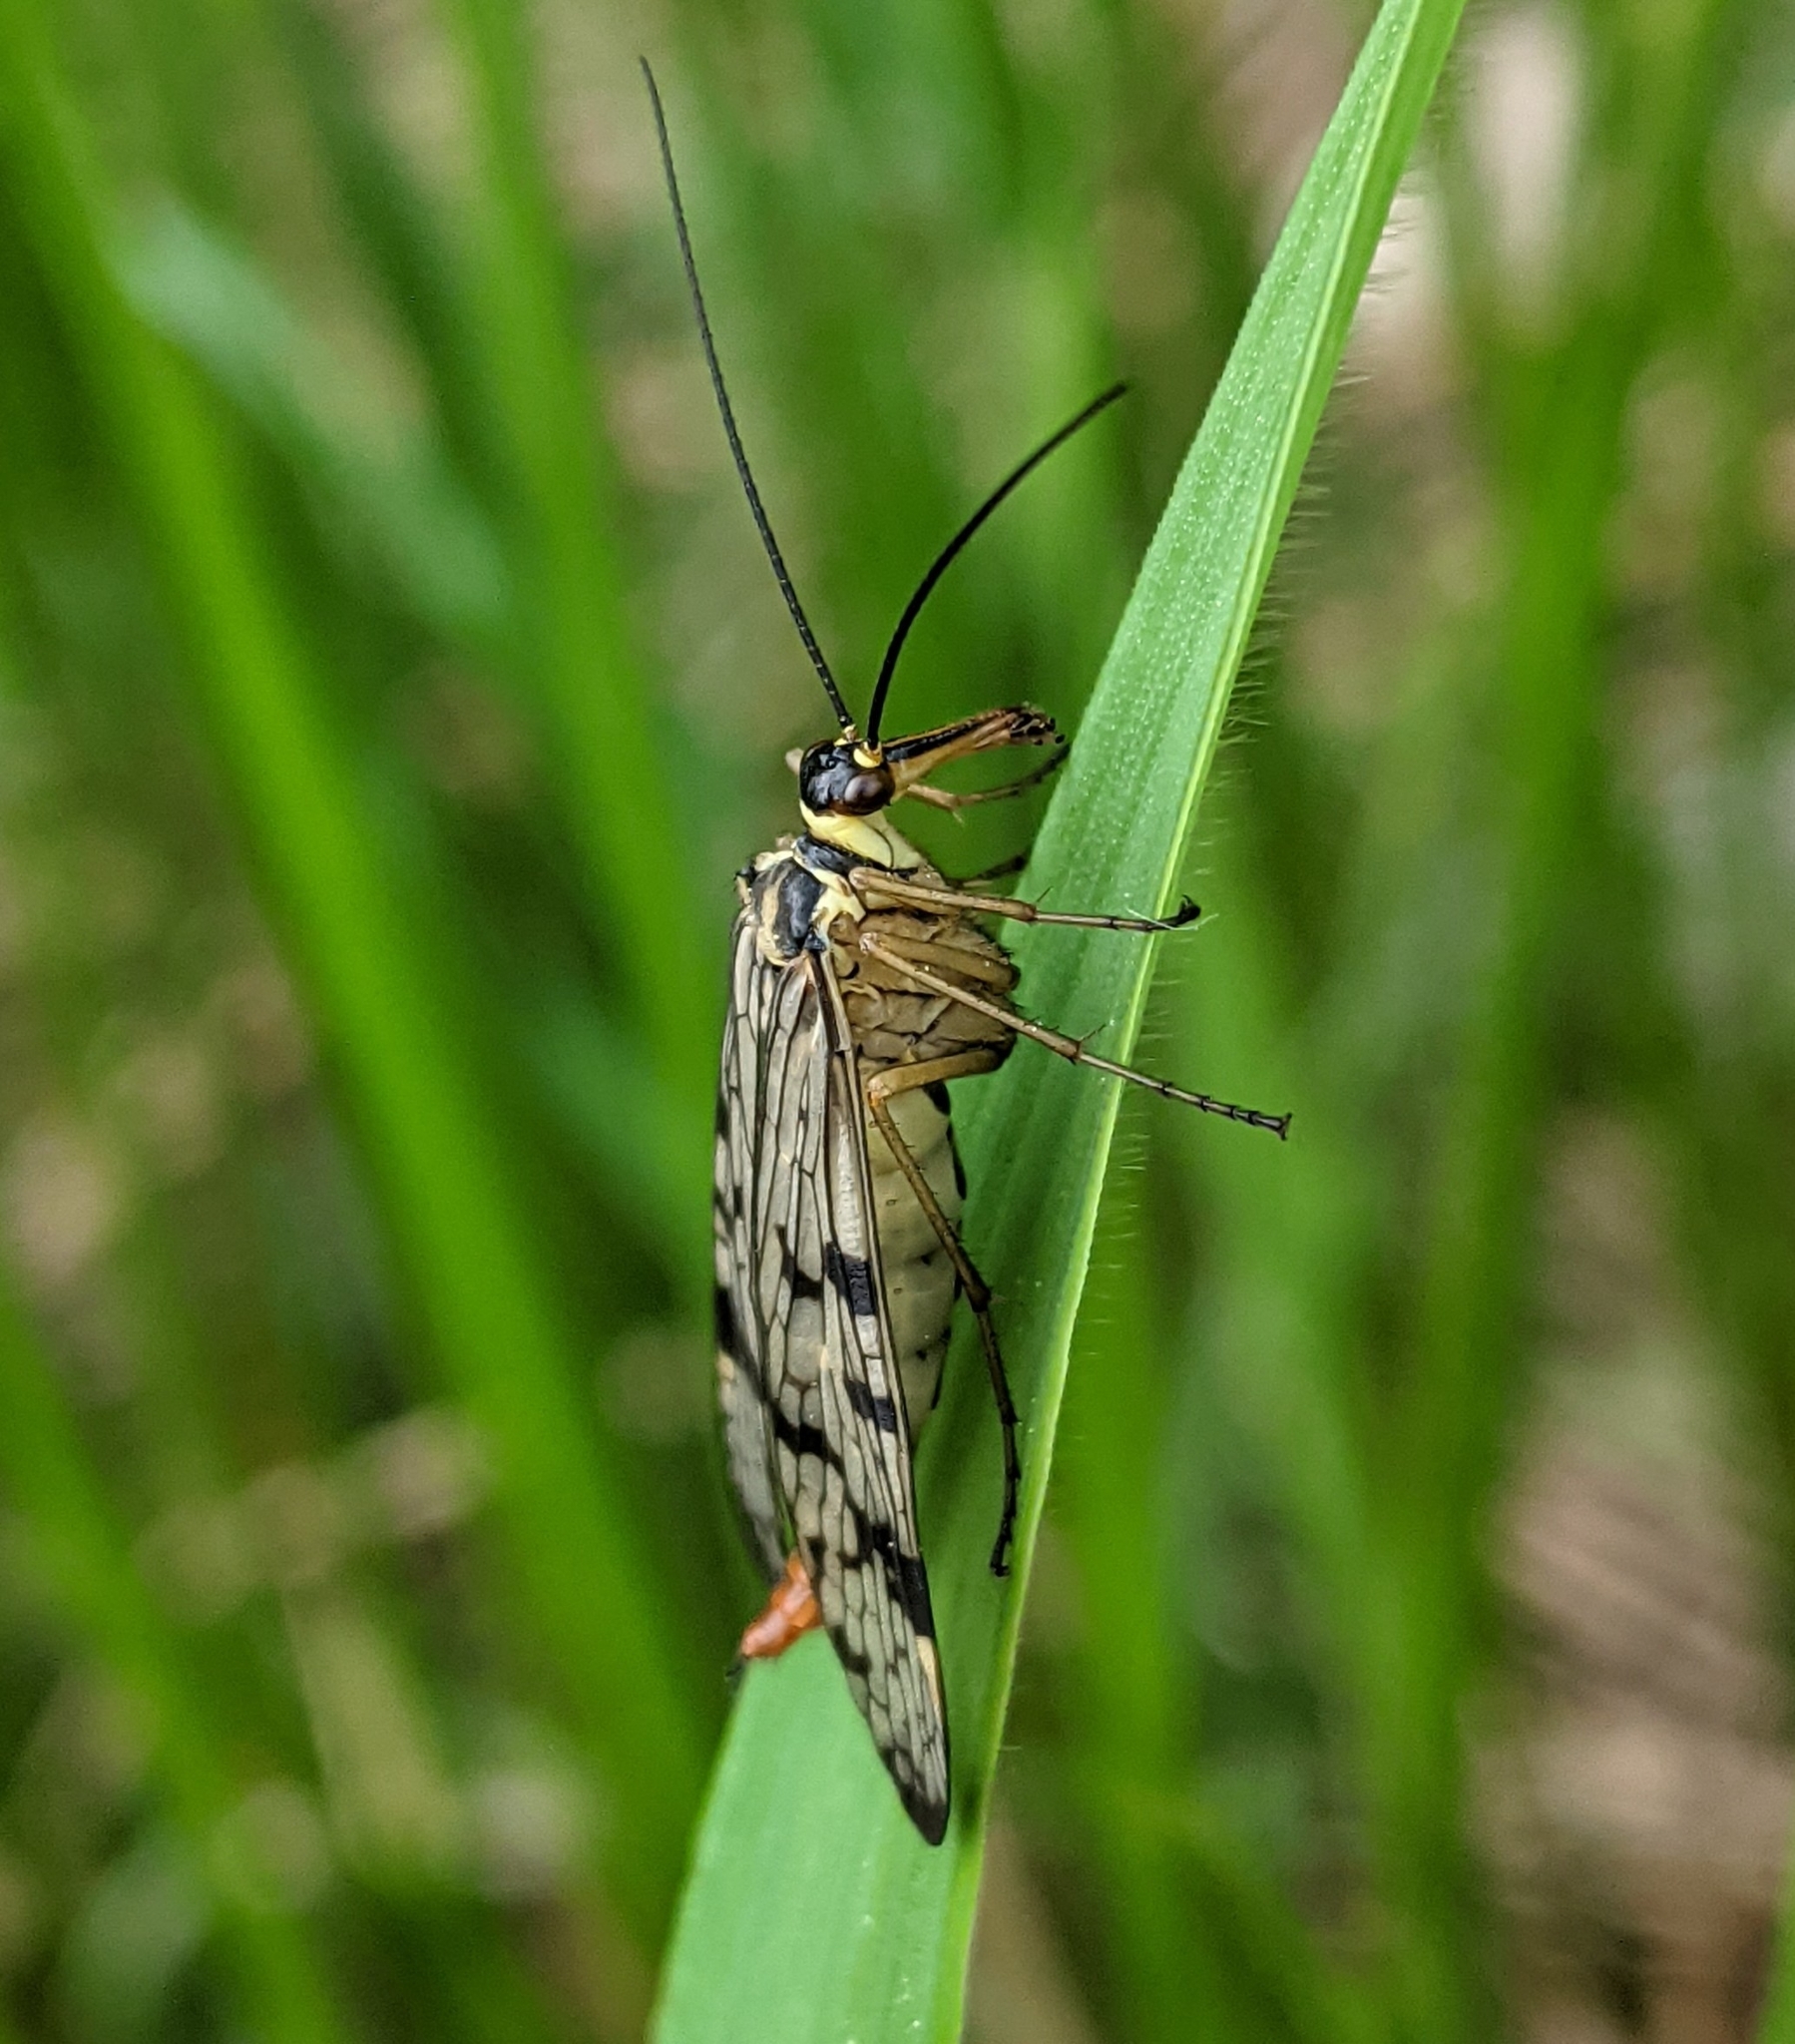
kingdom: Animalia
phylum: Arthropoda
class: Insecta
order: Mecoptera
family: Panorpidae
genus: Panorpa
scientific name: Panorpa communis
